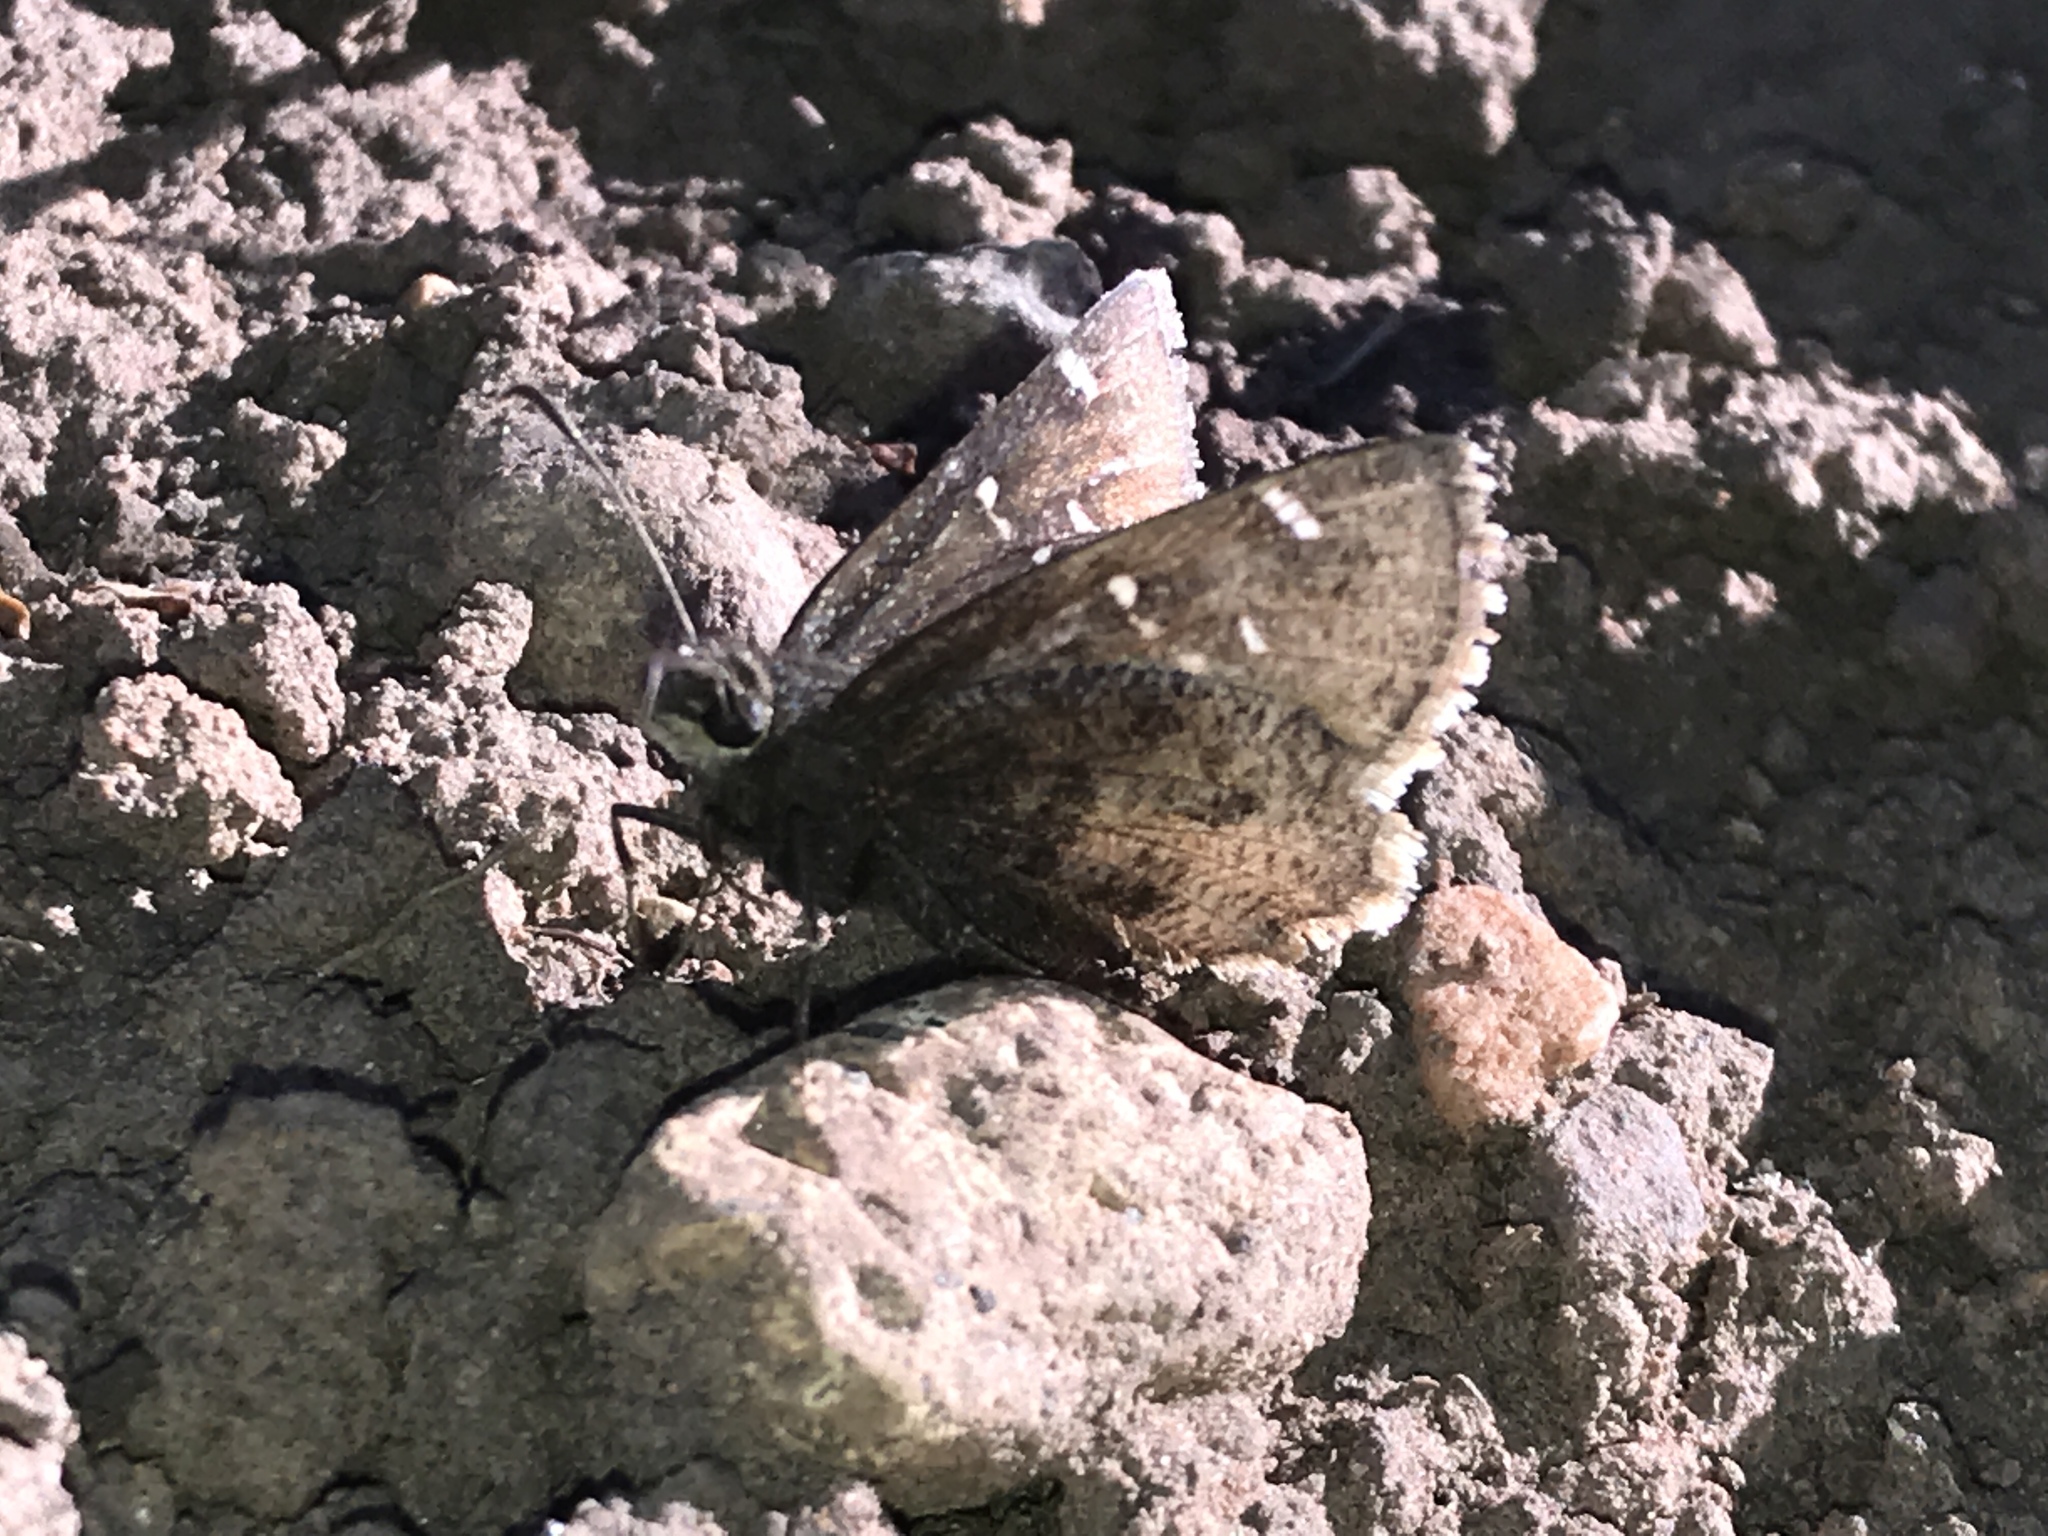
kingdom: Animalia
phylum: Arthropoda
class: Insecta
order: Lepidoptera
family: Hesperiidae
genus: Thorybes
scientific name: Thorybes mexicana
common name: Mexican cloudywing
